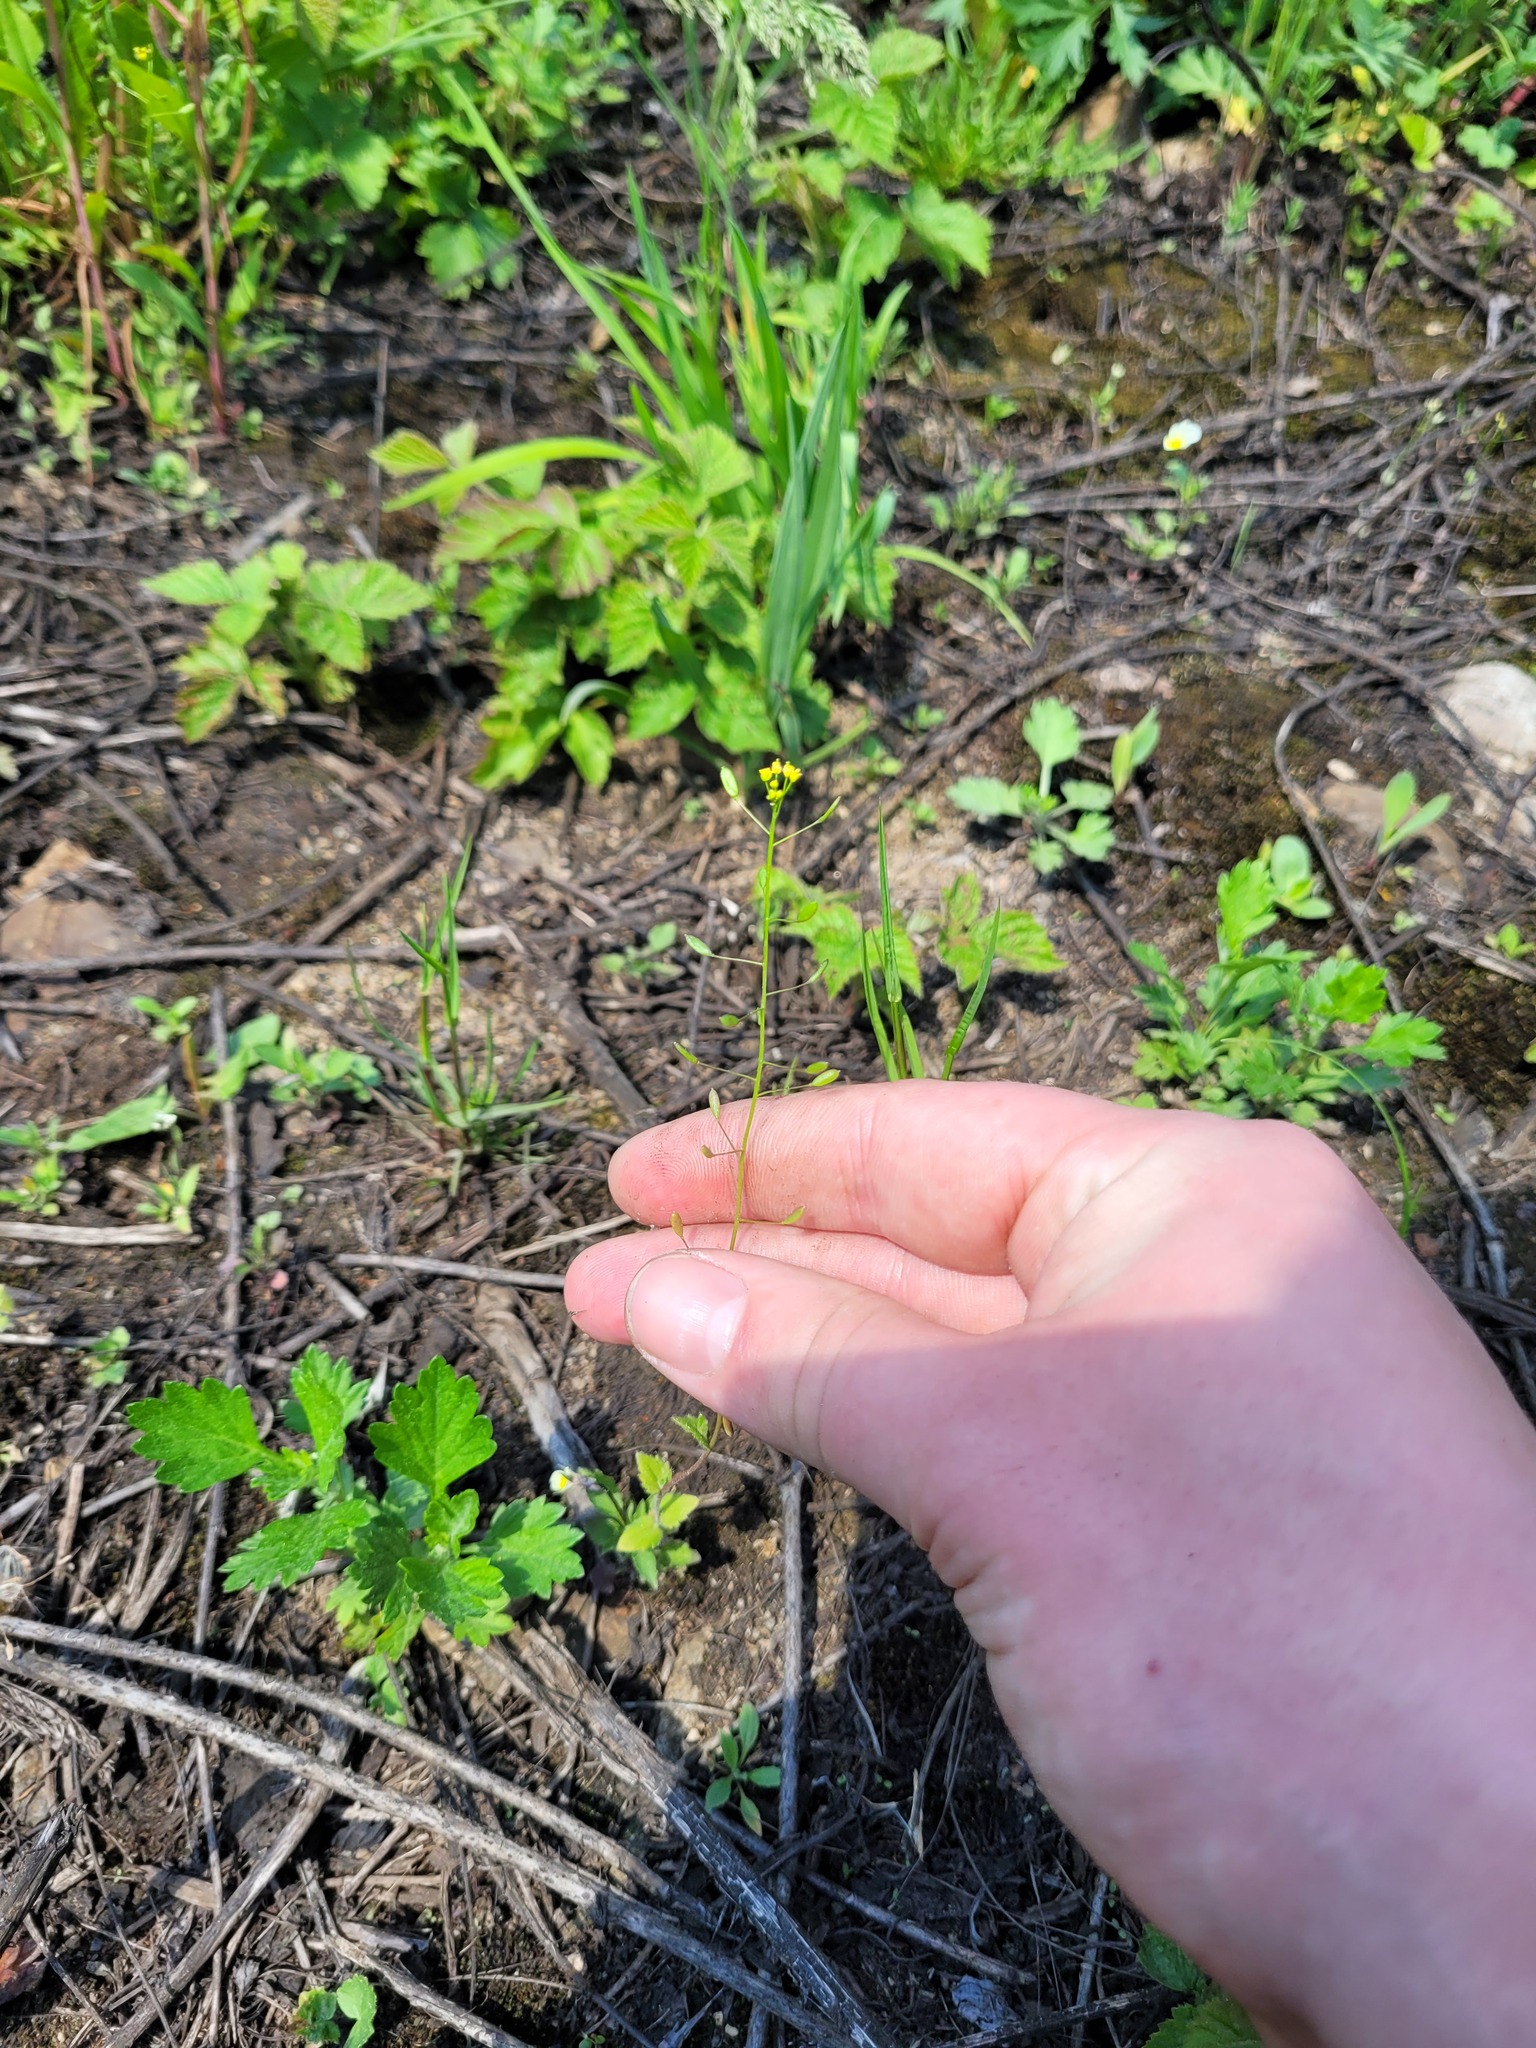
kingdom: Plantae
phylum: Tracheophyta
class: Magnoliopsida
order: Brassicales
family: Brassicaceae
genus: Draba
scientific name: Draba nemorosa
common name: Wood whitlow-grass
